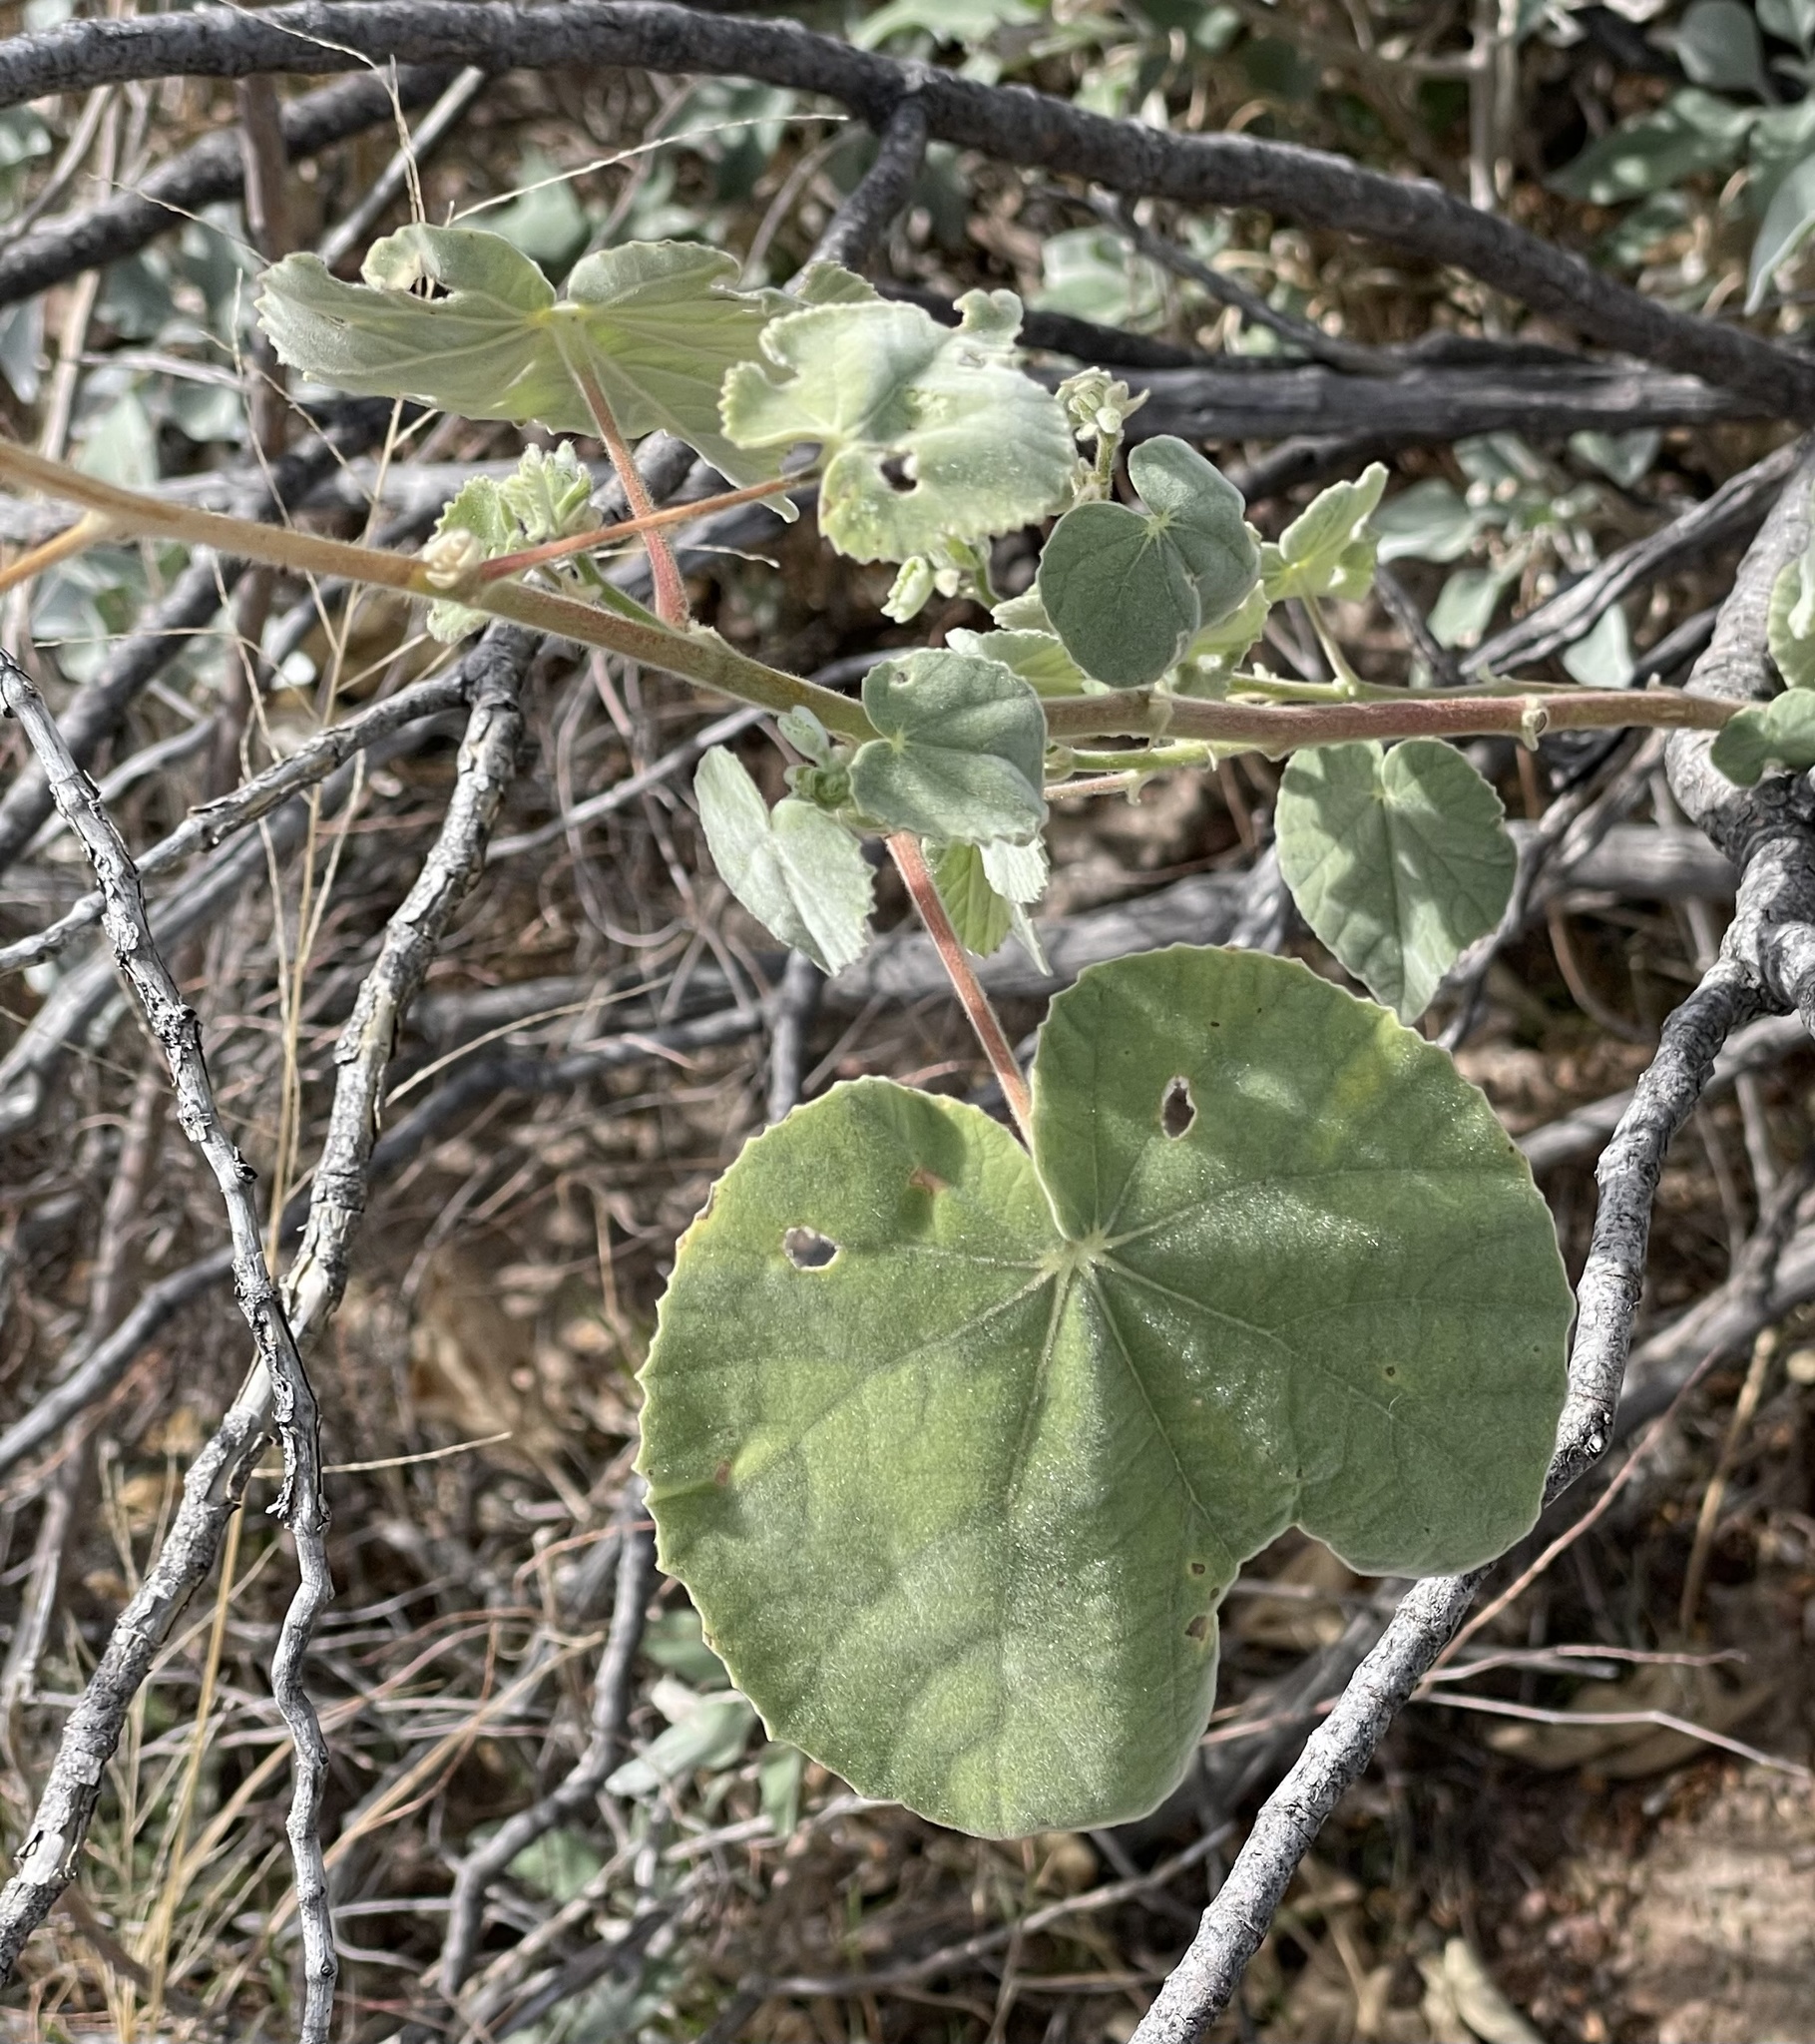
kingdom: Plantae
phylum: Tracheophyta
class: Magnoliopsida
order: Malvales
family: Malvaceae
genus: Abutilon
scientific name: Abutilon palmeri
